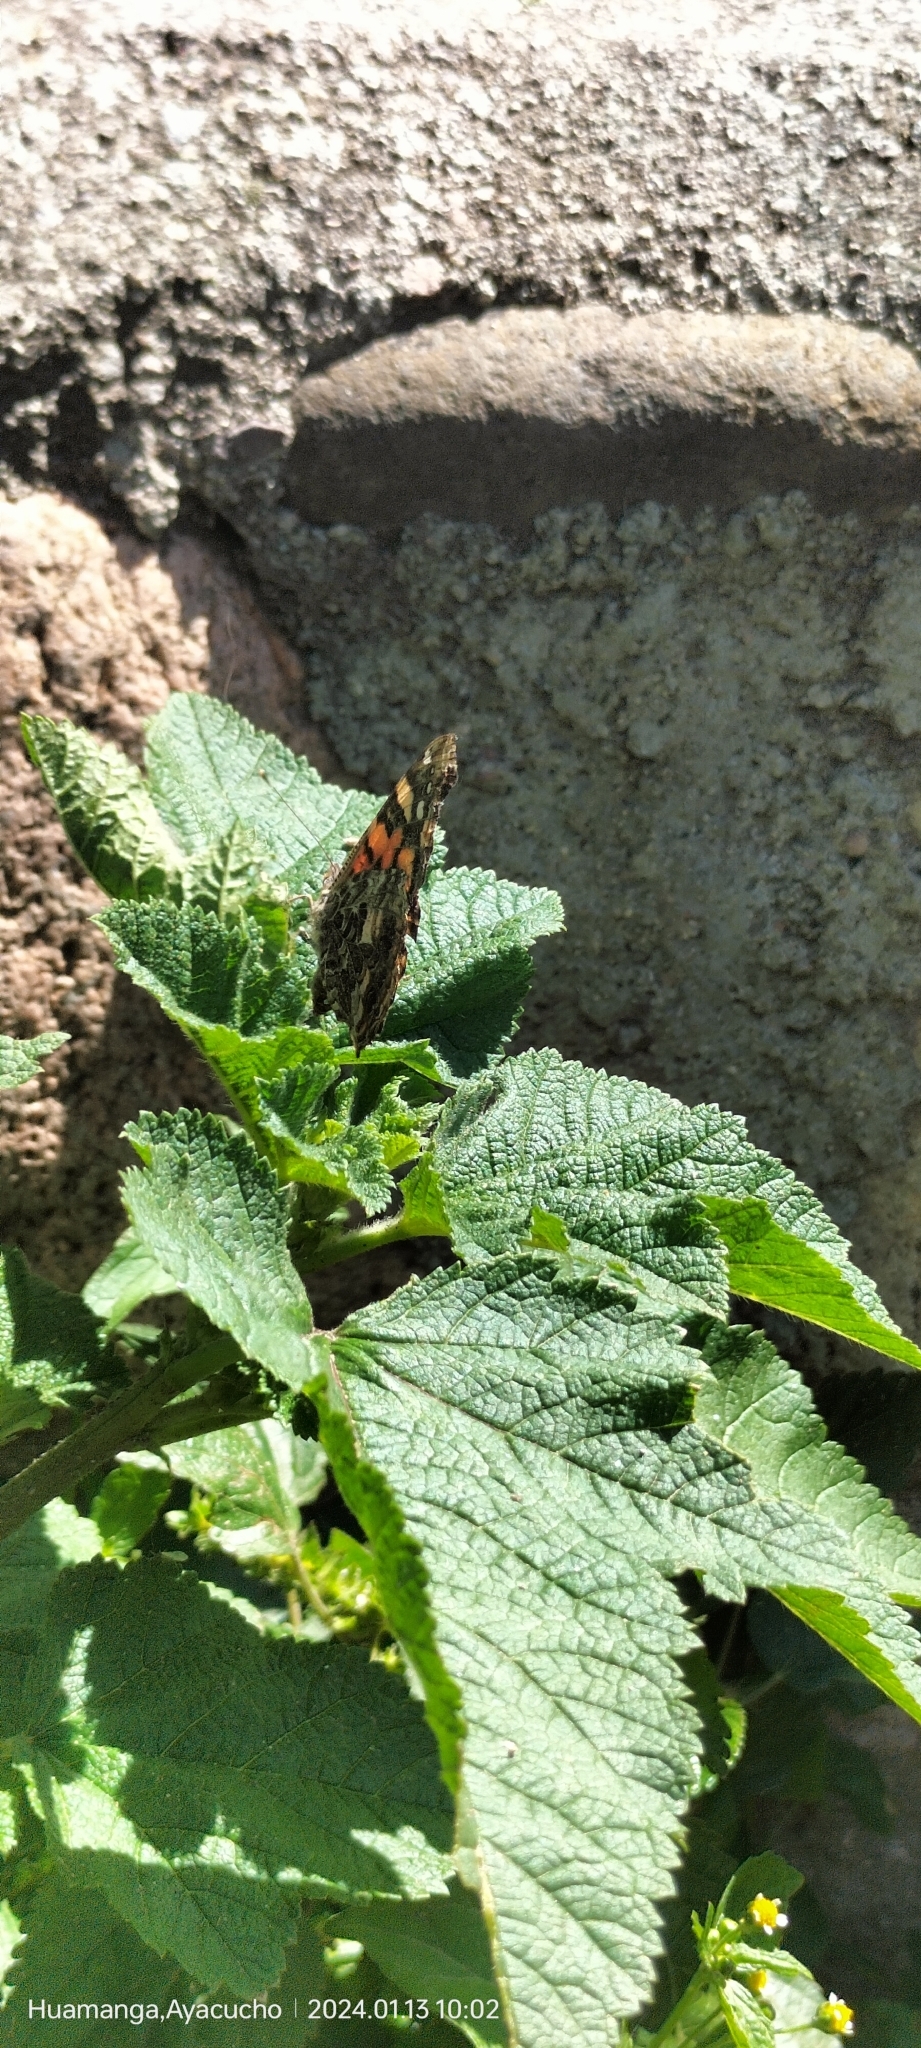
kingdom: Animalia
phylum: Arthropoda
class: Insecta
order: Lepidoptera
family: Nymphalidae
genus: Vanessa
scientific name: Vanessa carye
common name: Subtropical lady
